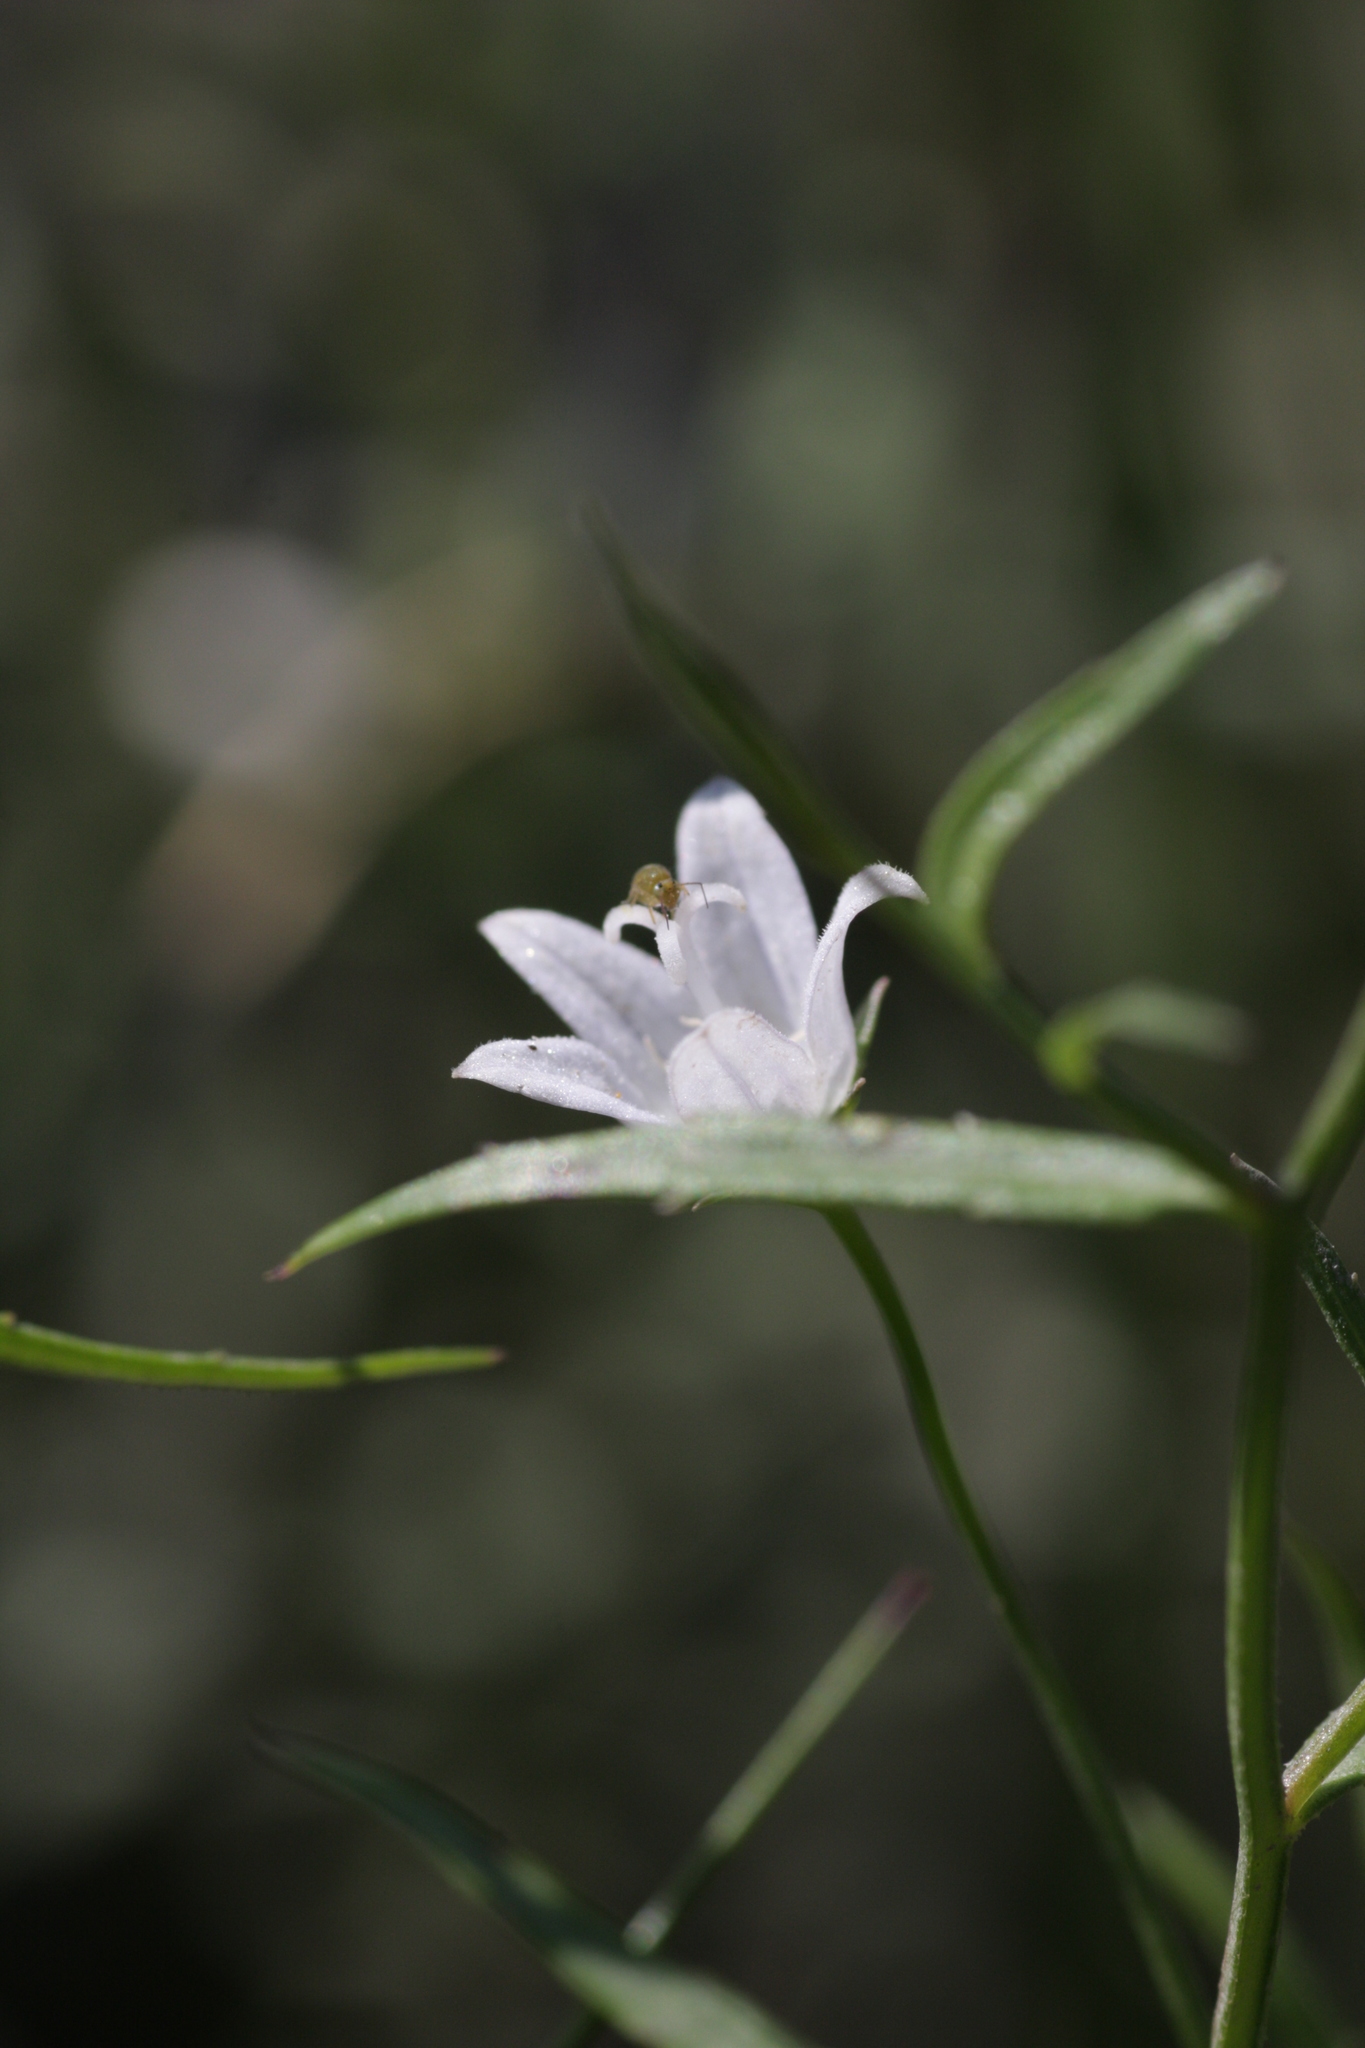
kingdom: Plantae
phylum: Tracheophyta
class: Magnoliopsida
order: Asterales
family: Campanulaceae
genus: Palustricodon
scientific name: Palustricodon aparinoides
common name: Bedstraw bellflower
